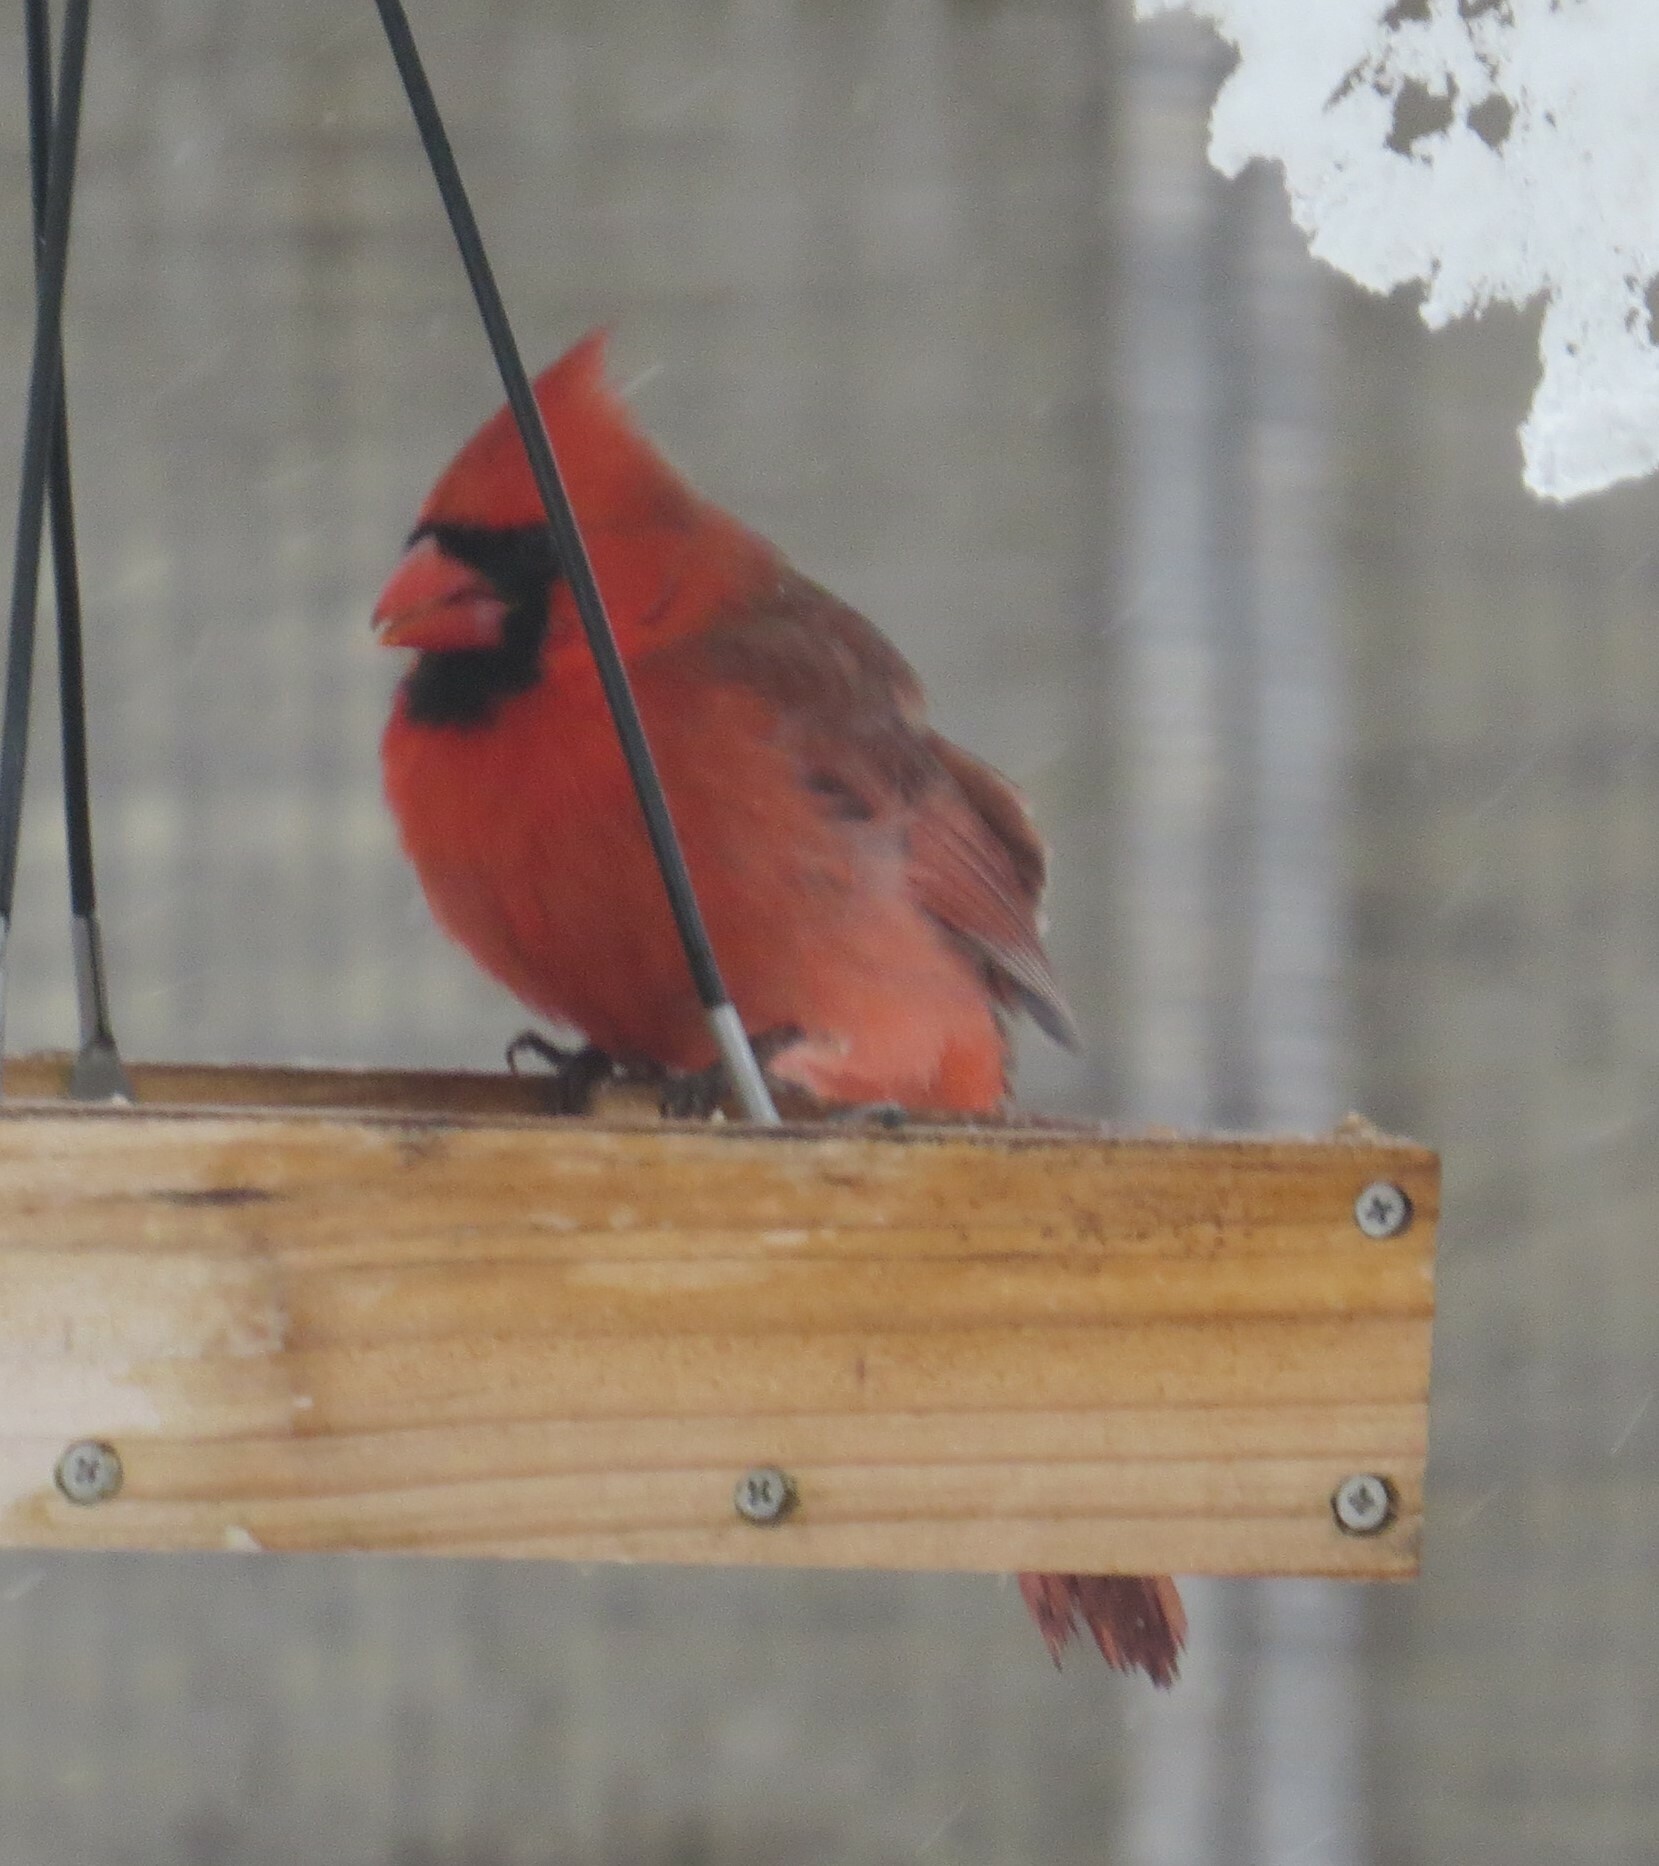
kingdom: Animalia
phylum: Chordata
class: Aves
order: Passeriformes
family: Cardinalidae
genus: Cardinalis
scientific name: Cardinalis cardinalis
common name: Northern cardinal
